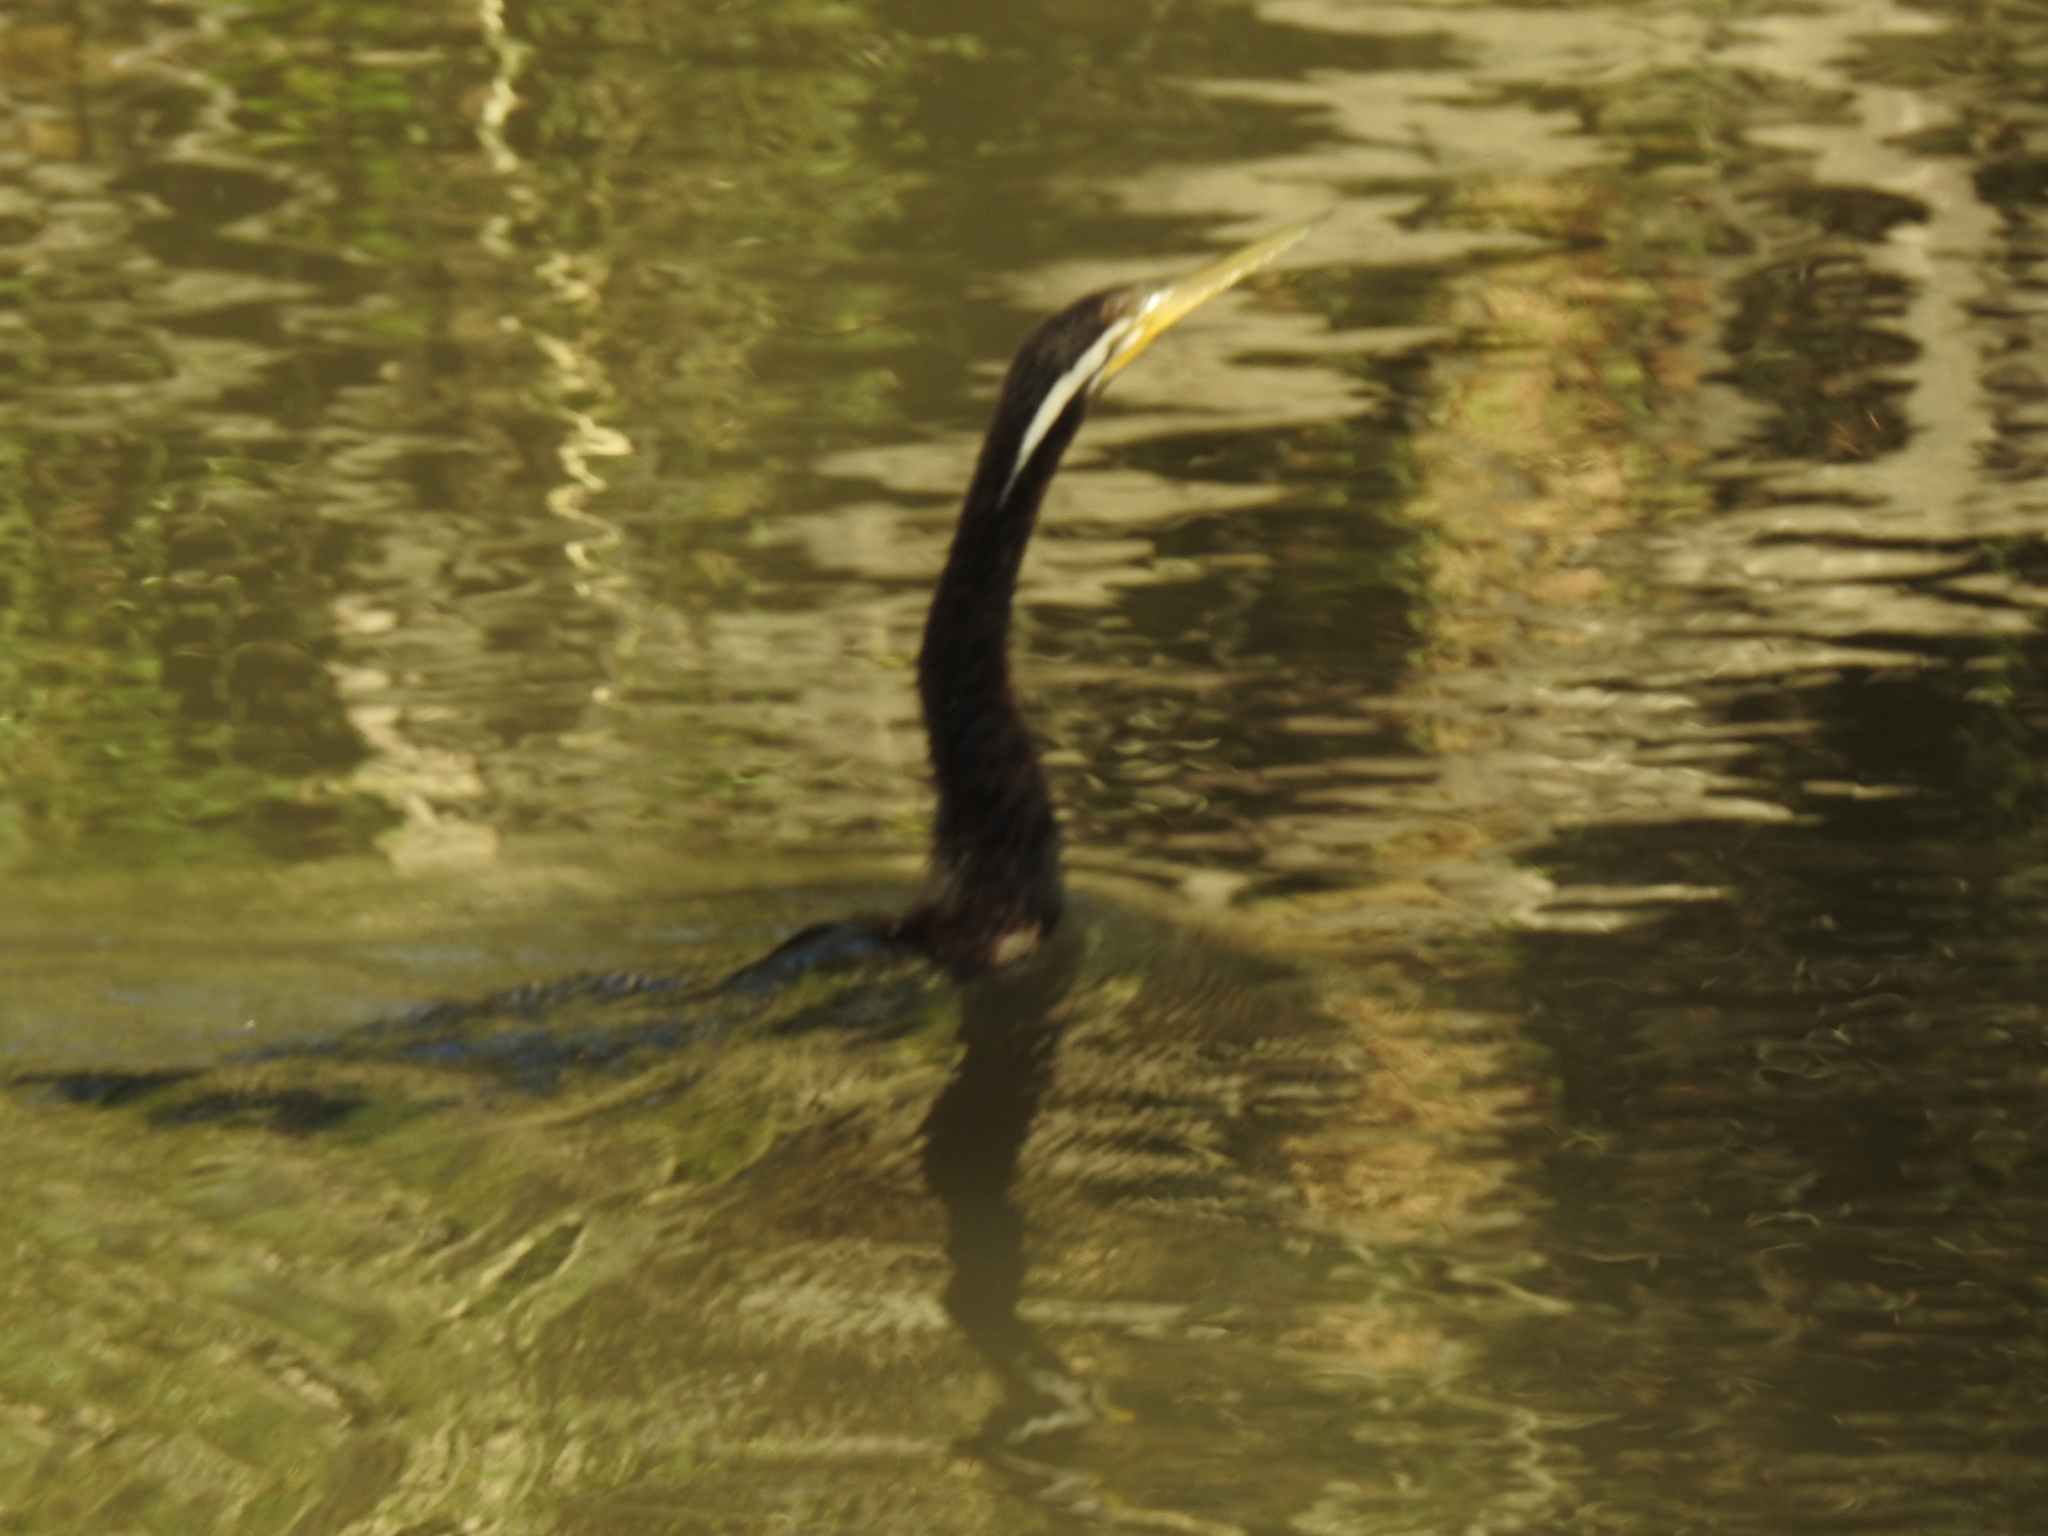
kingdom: Animalia
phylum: Chordata
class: Aves
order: Suliformes
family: Anhingidae
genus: Anhinga
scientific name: Anhinga novaehollandiae
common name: Australasian darter
